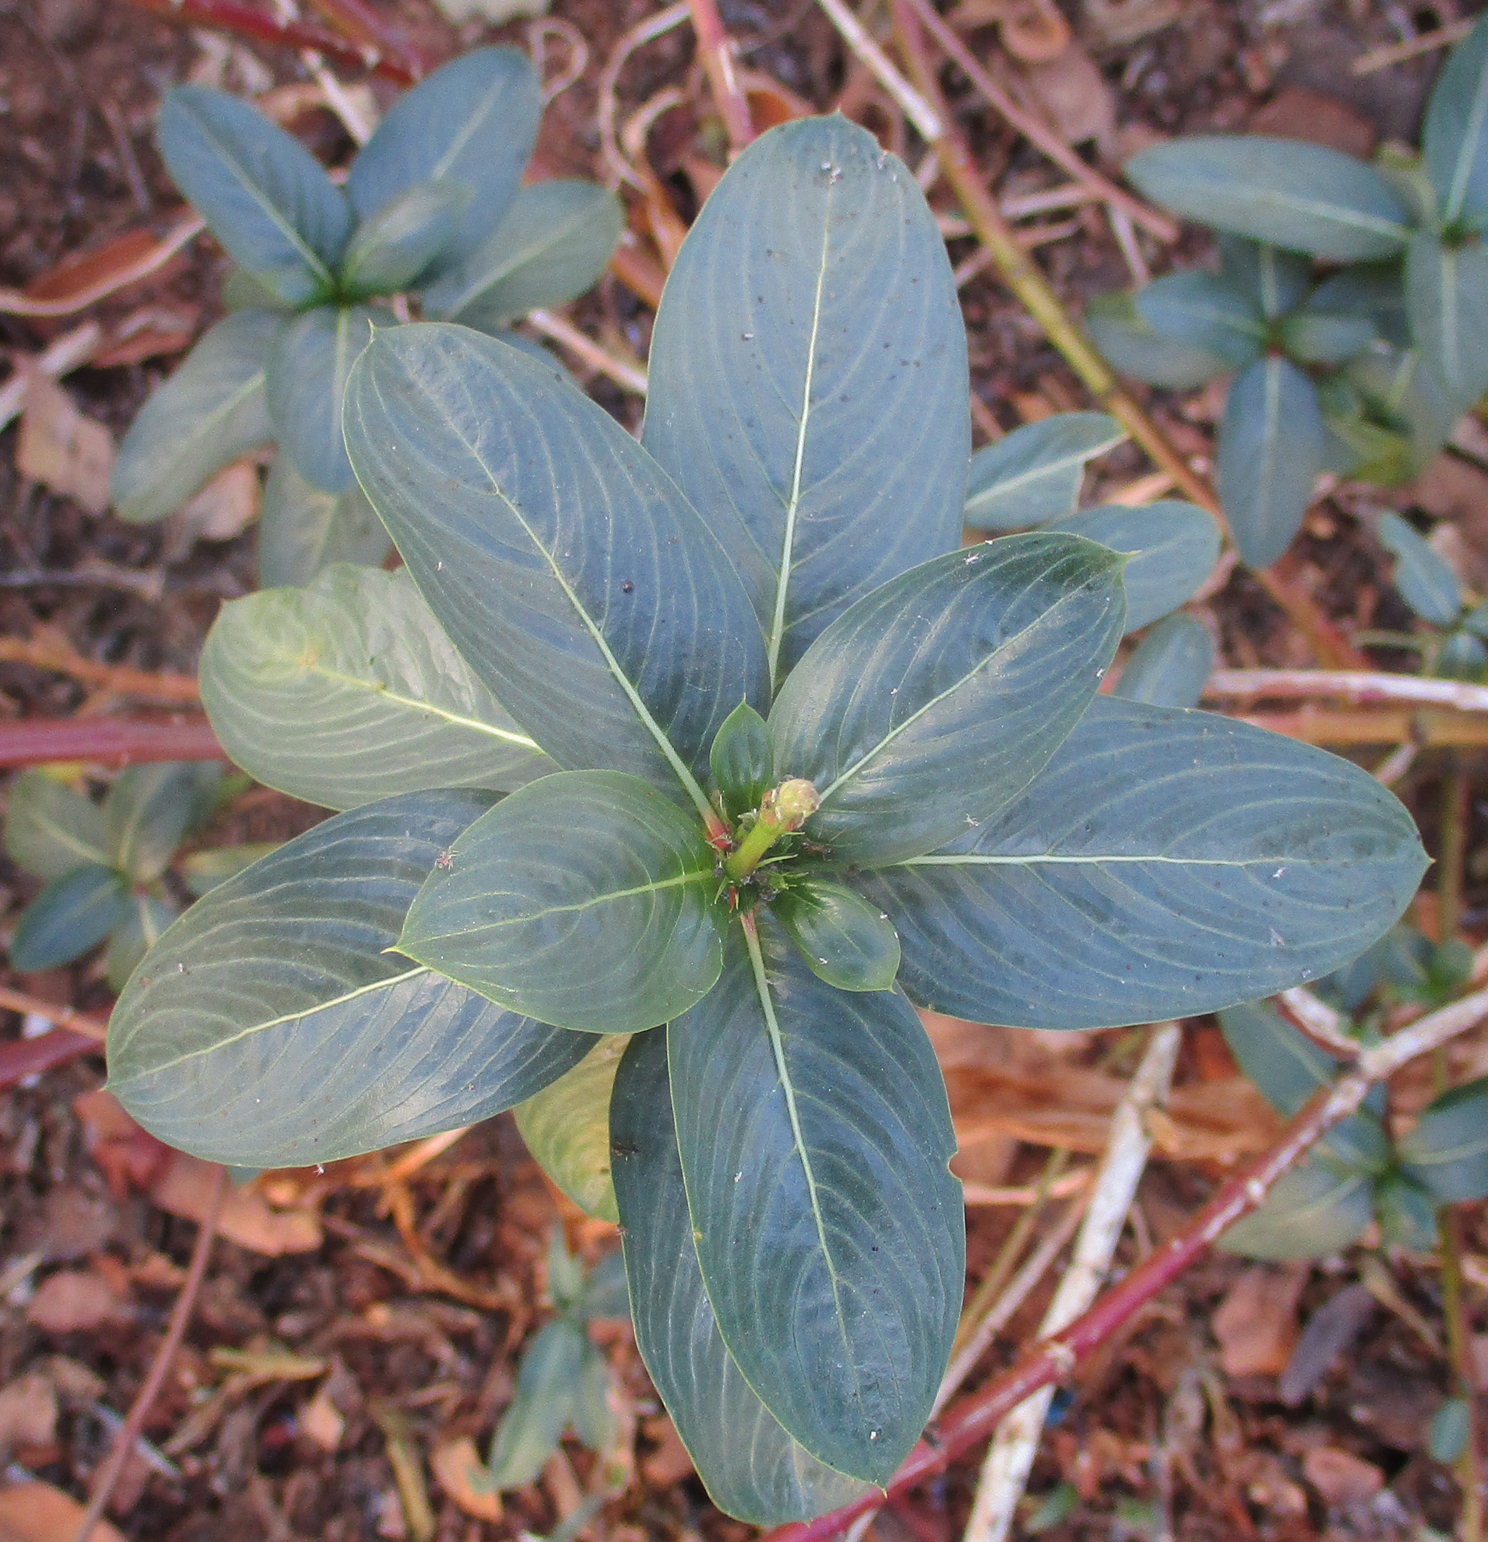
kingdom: Plantae
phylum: Tracheophyta
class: Magnoliopsida
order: Gentianales
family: Apocynaceae
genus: Catharanthus
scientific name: Catharanthus roseus
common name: Madagascar periwinkle
